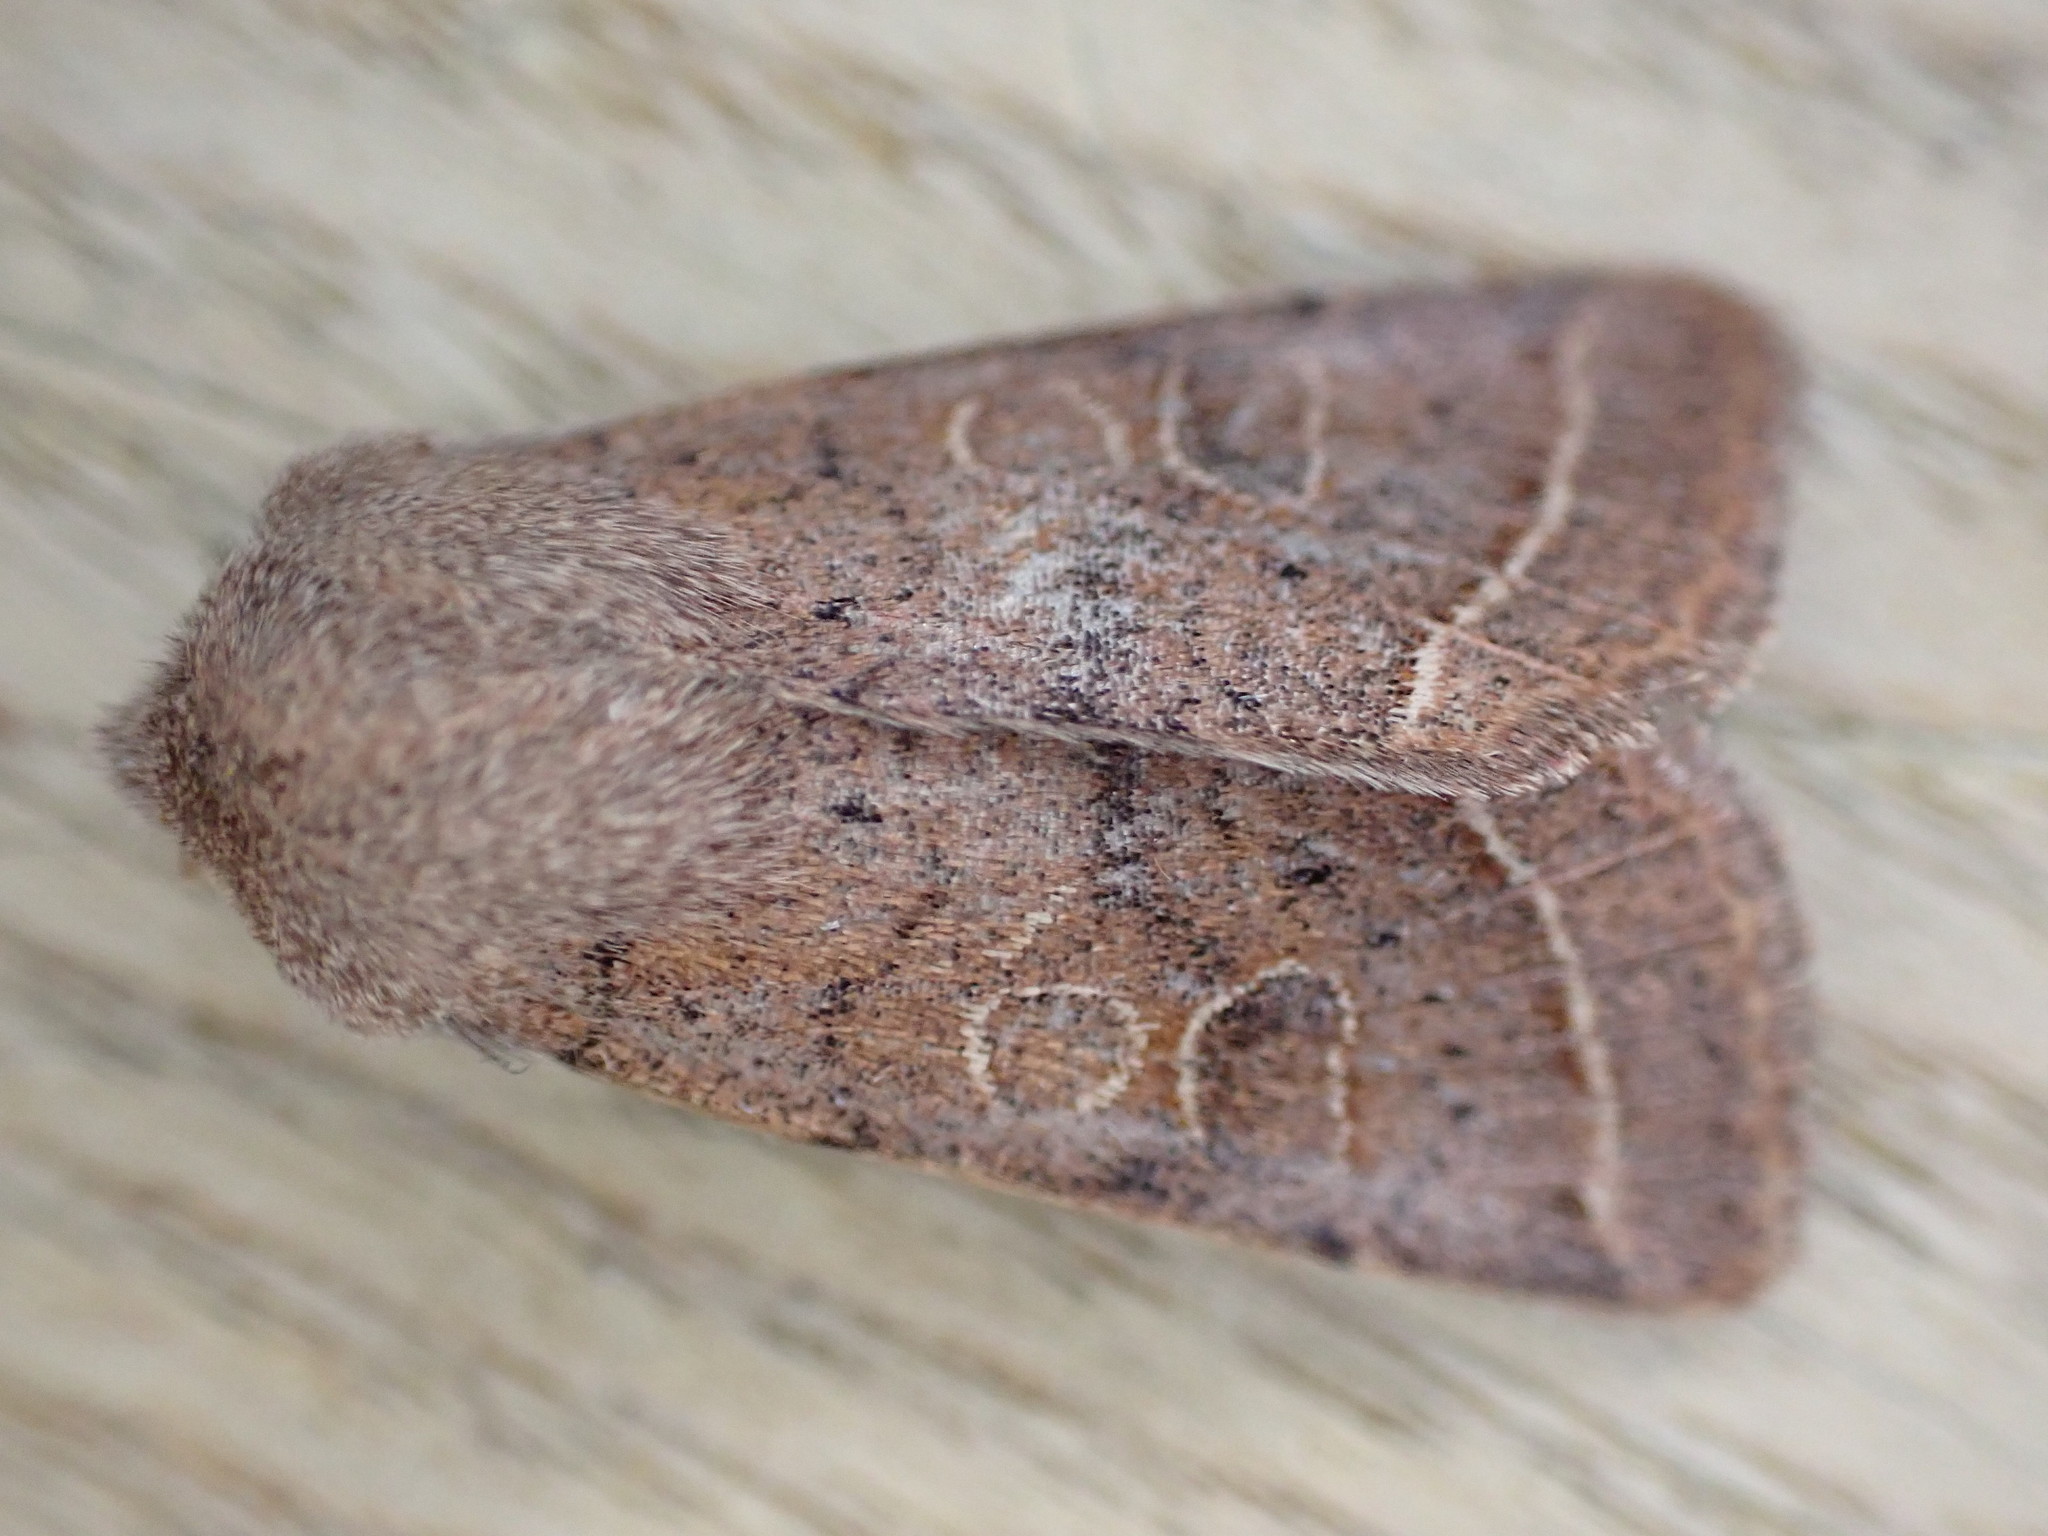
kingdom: Animalia
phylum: Arthropoda
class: Insecta
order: Lepidoptera
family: Noctuidae
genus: Orthosia
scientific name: Orthosia cerasi
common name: Common quaker
